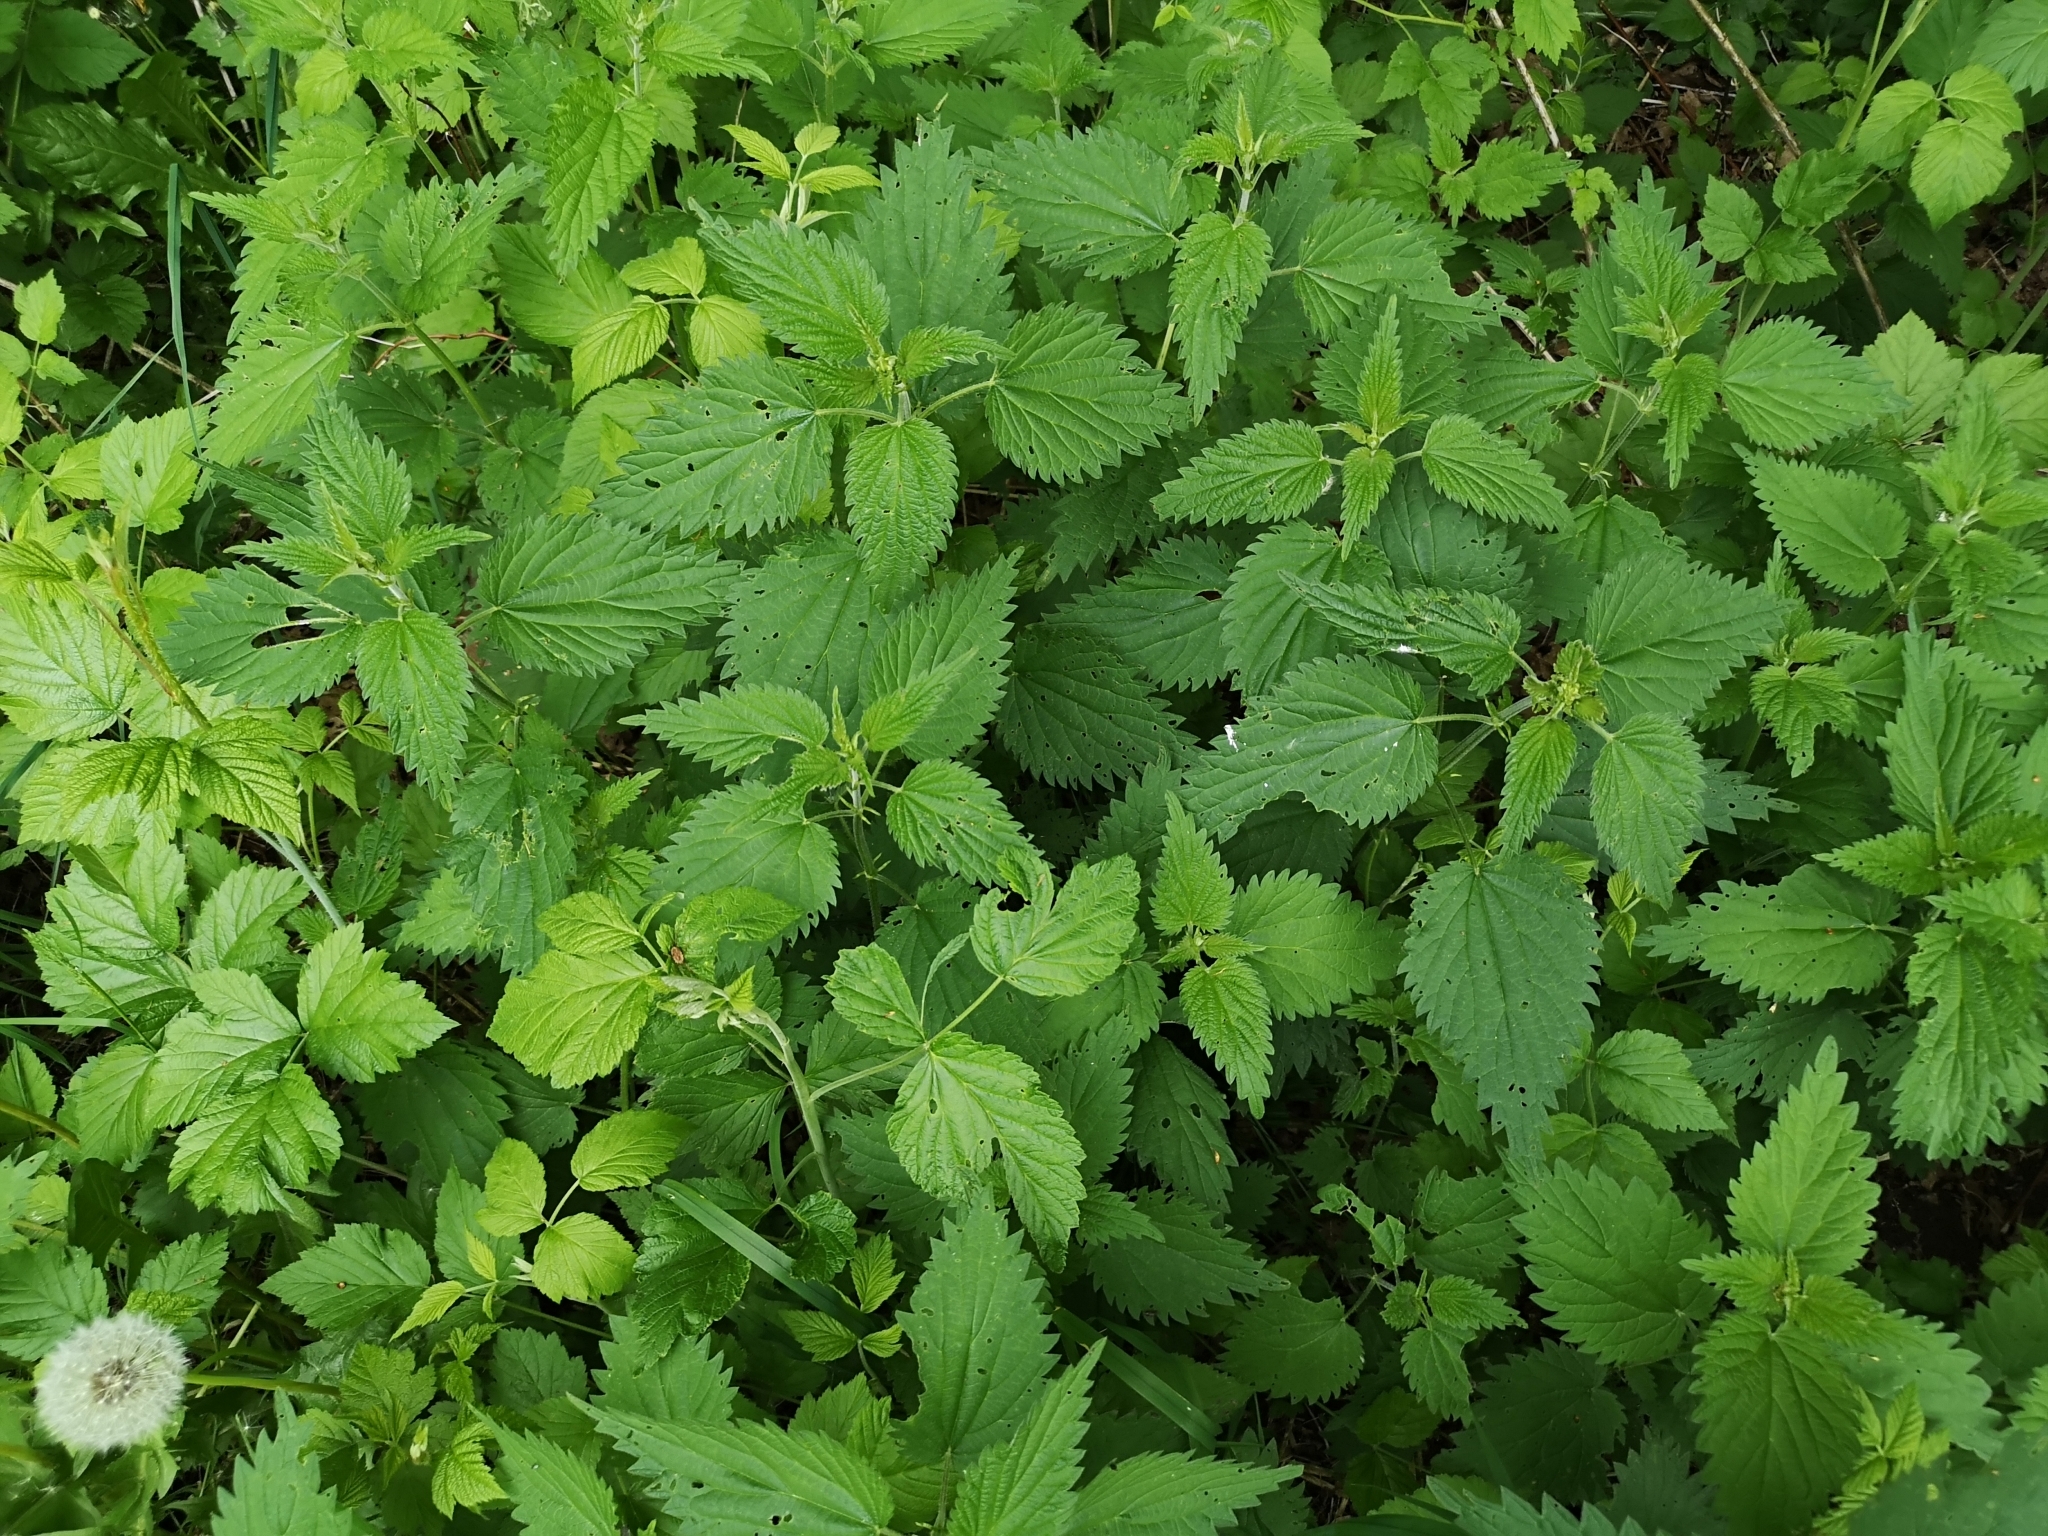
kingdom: Plantae
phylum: Tracheophyta
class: Magnoliopsida
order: Rosales
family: Urticaceae
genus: Urtica
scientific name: Urtica dioica
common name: Common nettle
